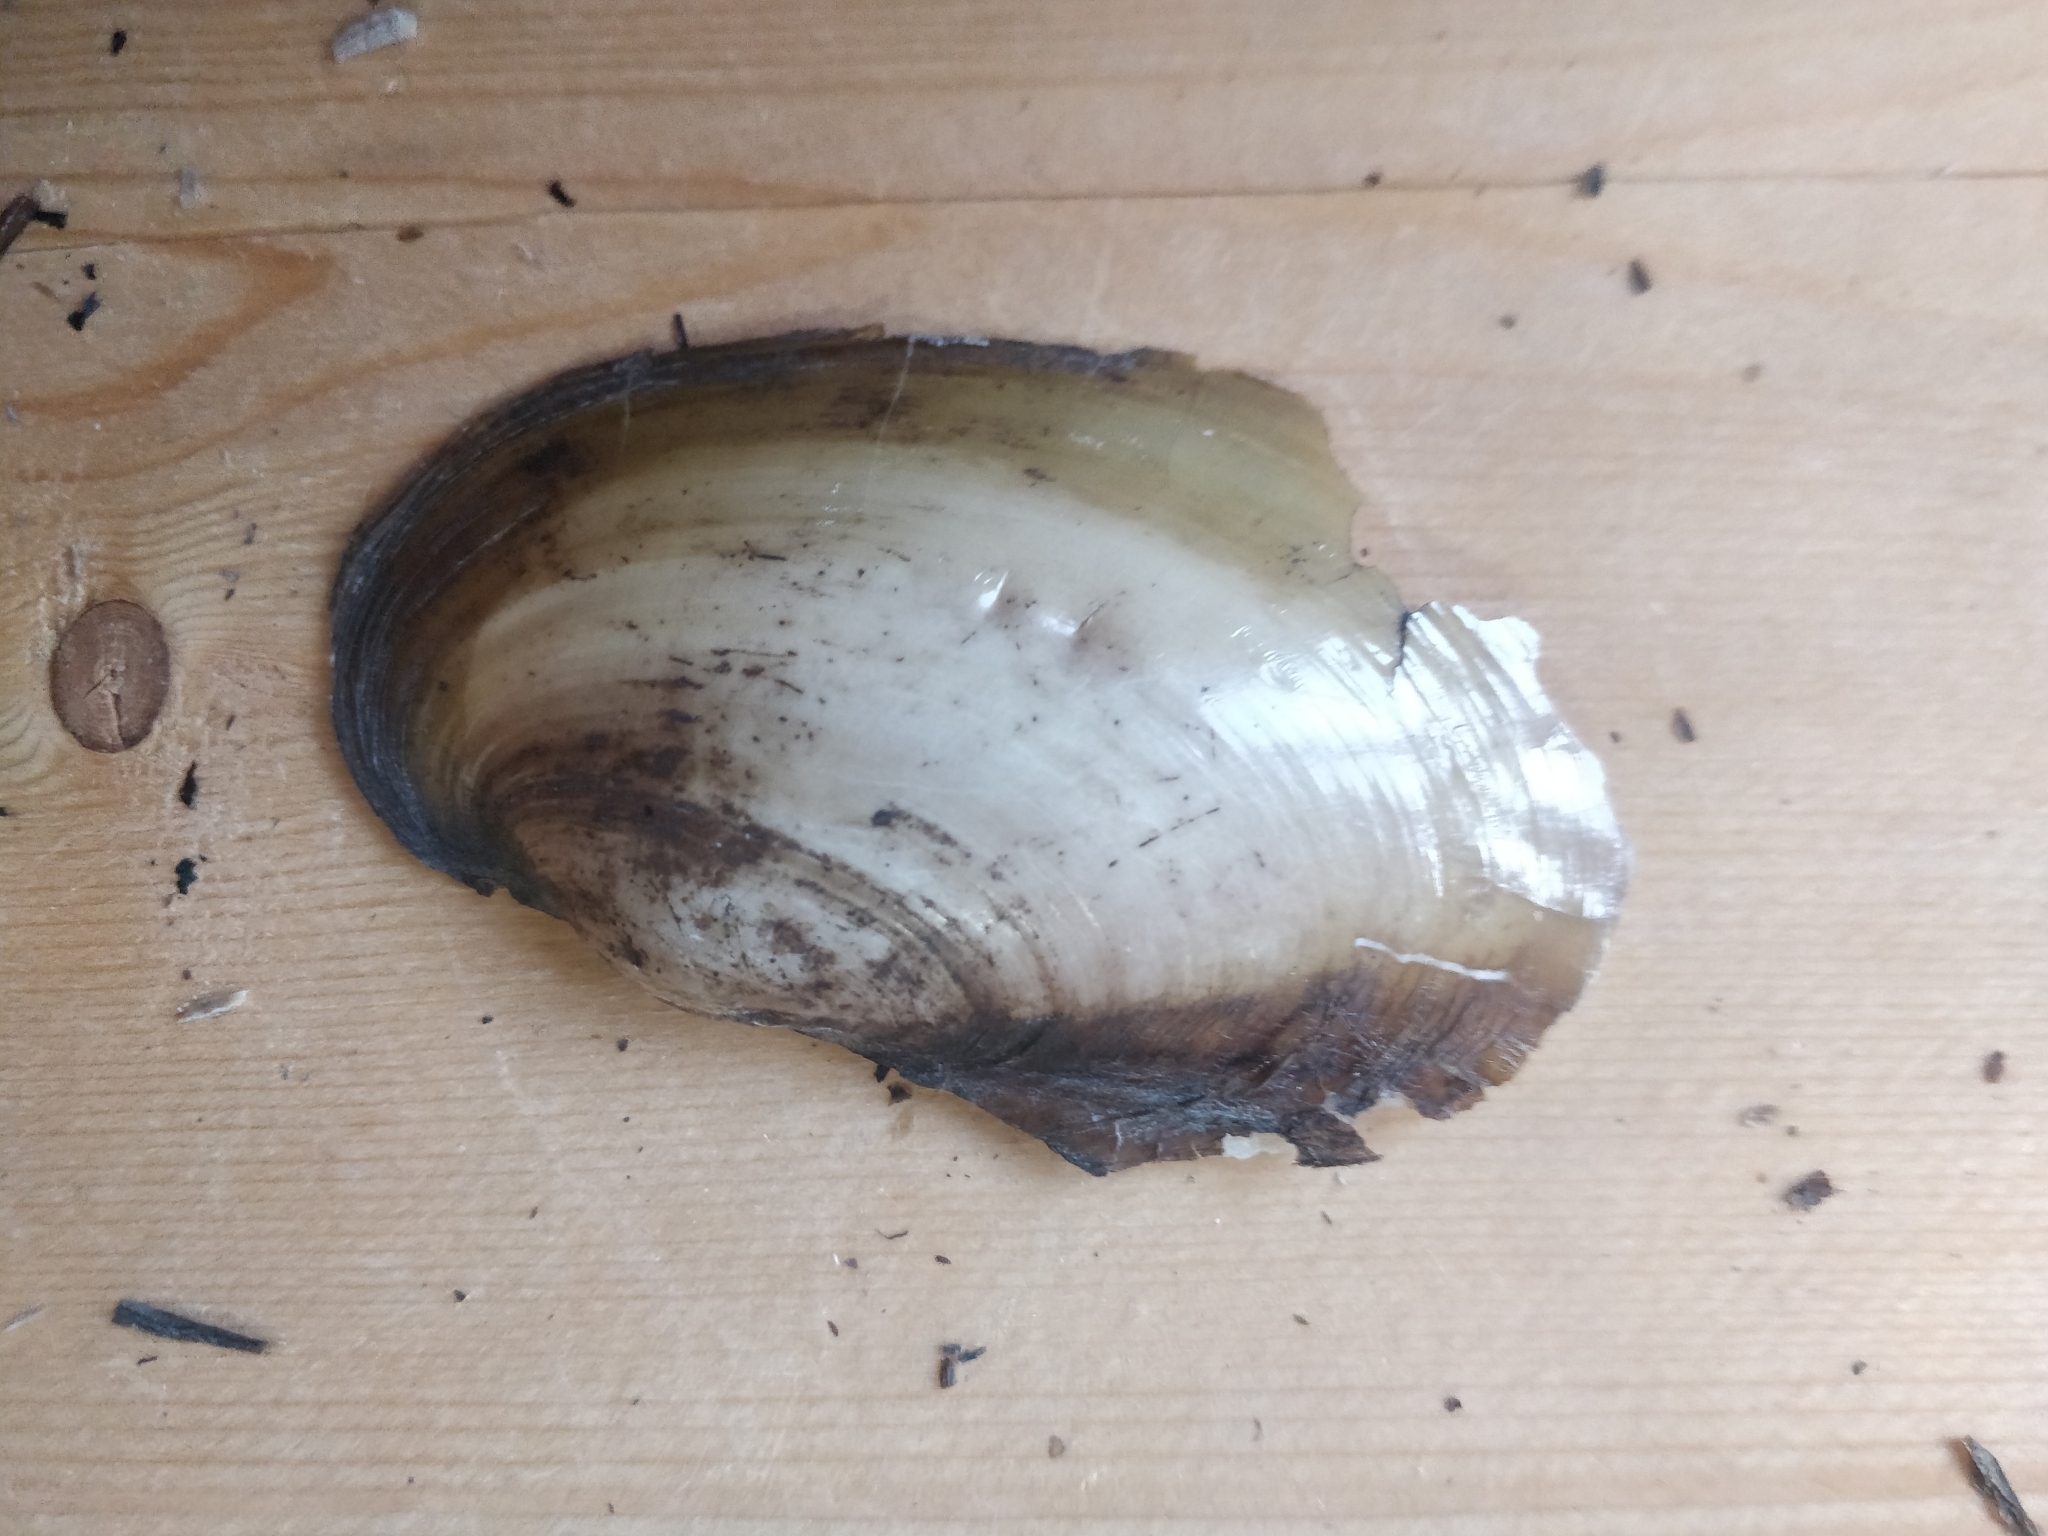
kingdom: Animalia
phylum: Mollusca
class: Bivalvia
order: Unionida
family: Unionidae
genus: Potamilus
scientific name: Potamilus fragilis
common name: Fragile papershell
